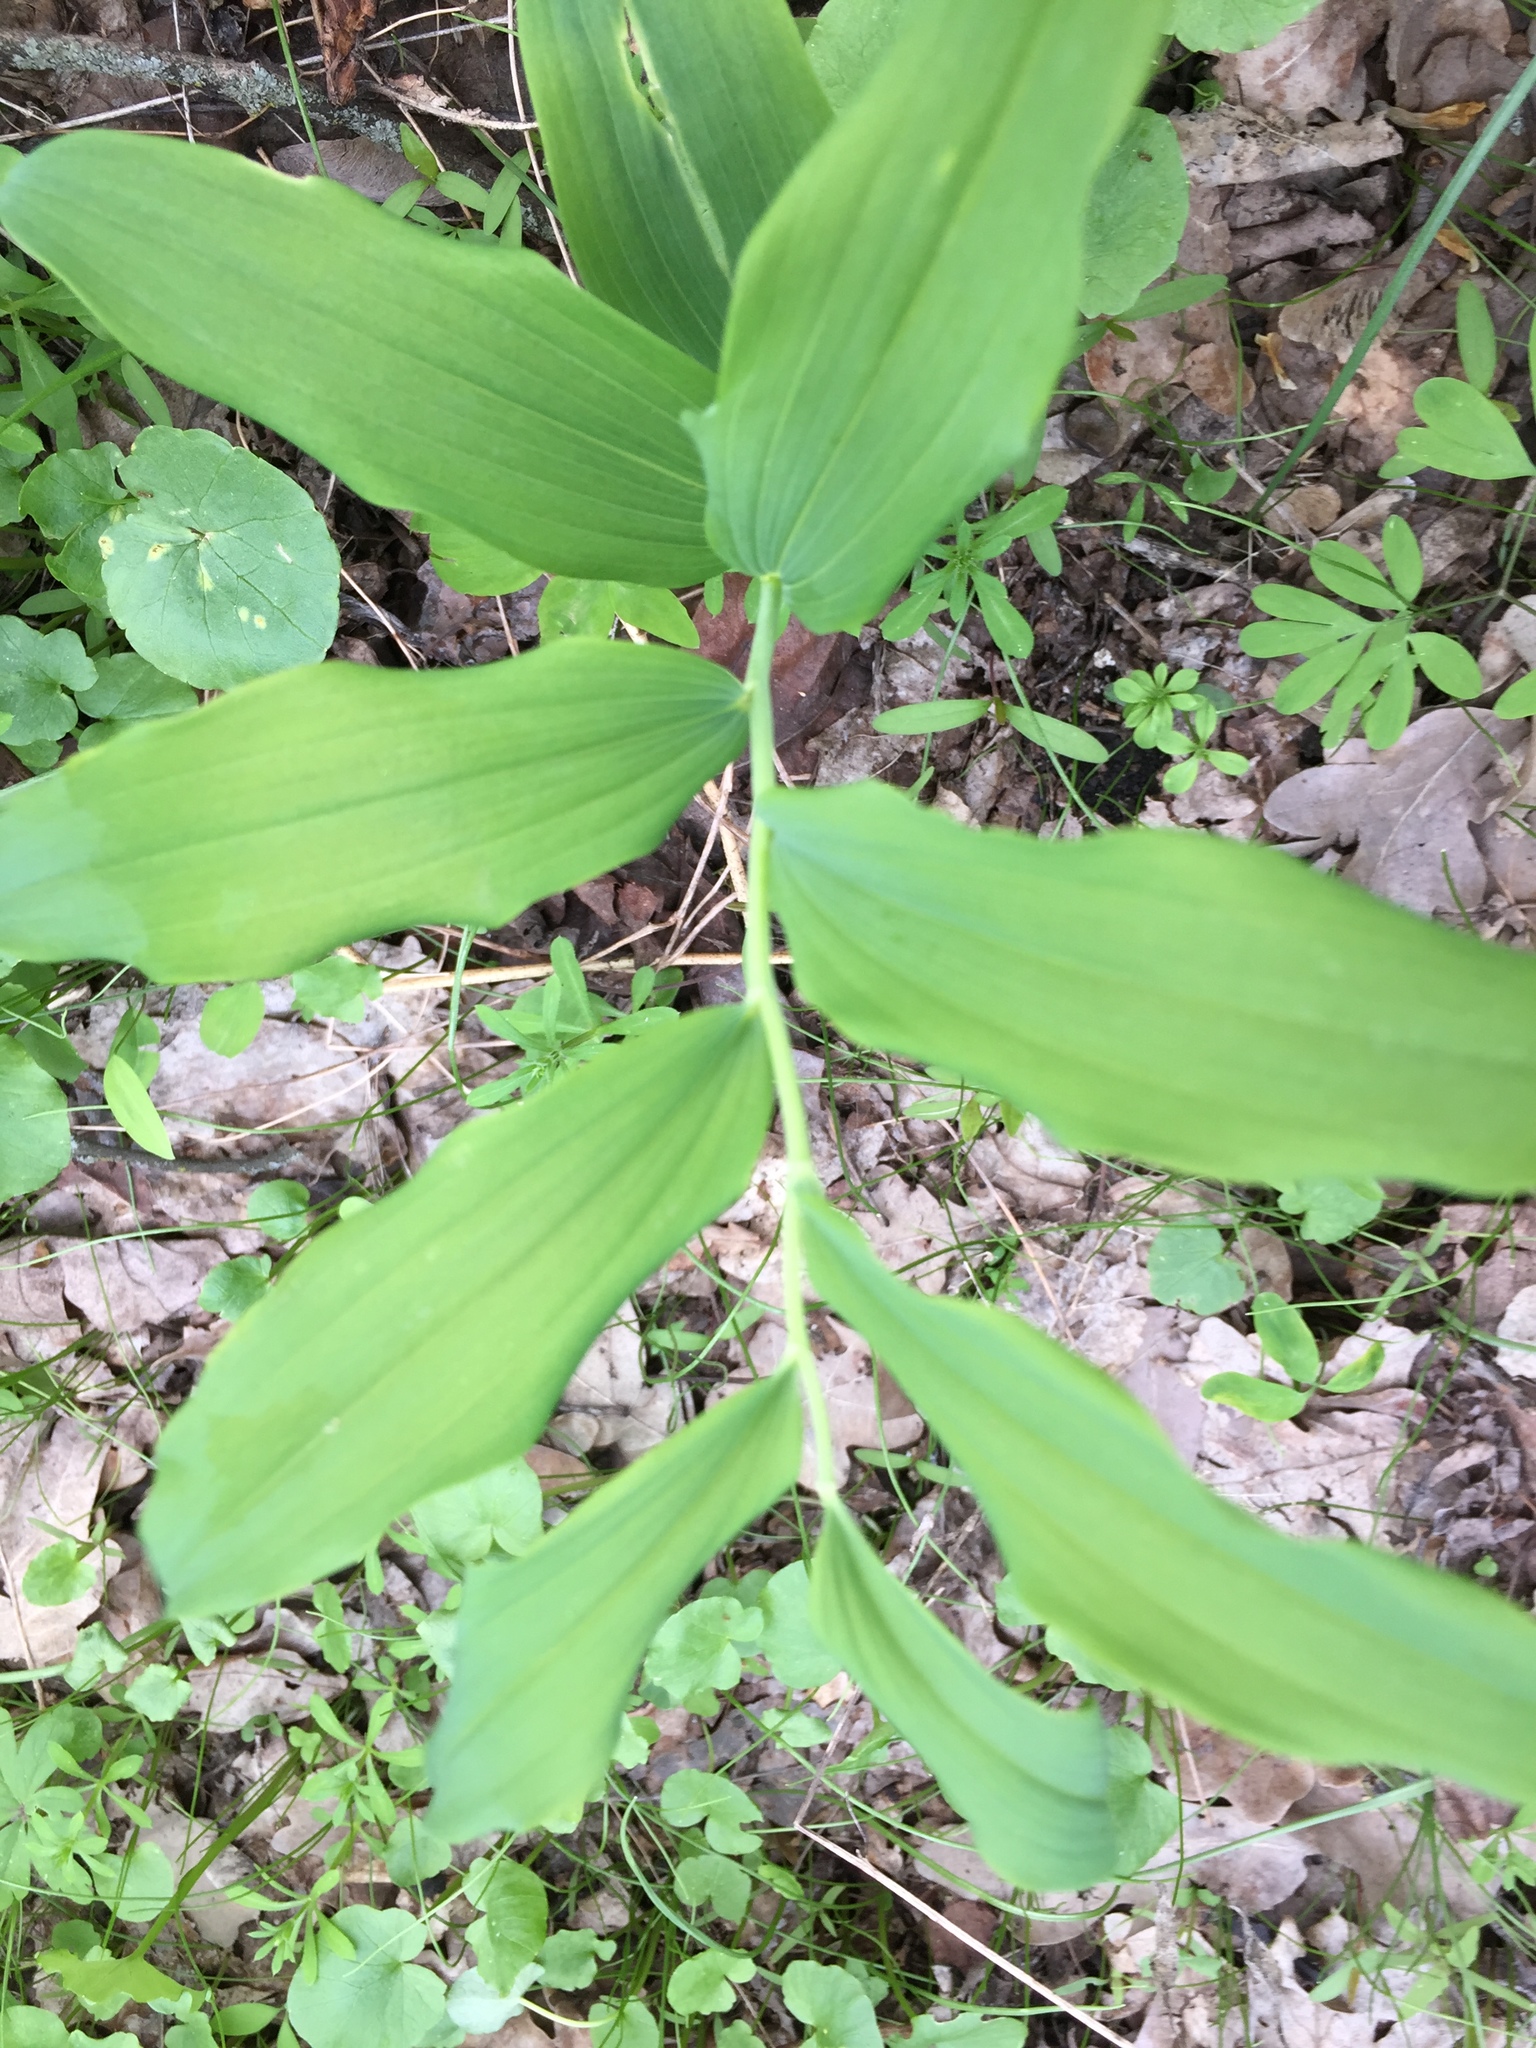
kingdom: Plantae
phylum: Tracheophyta
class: Liliopsida
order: Asparagales
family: Asparagaceae
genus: Polygonatum
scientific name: Polygonatum multiflorum
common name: Solomon's-seal
